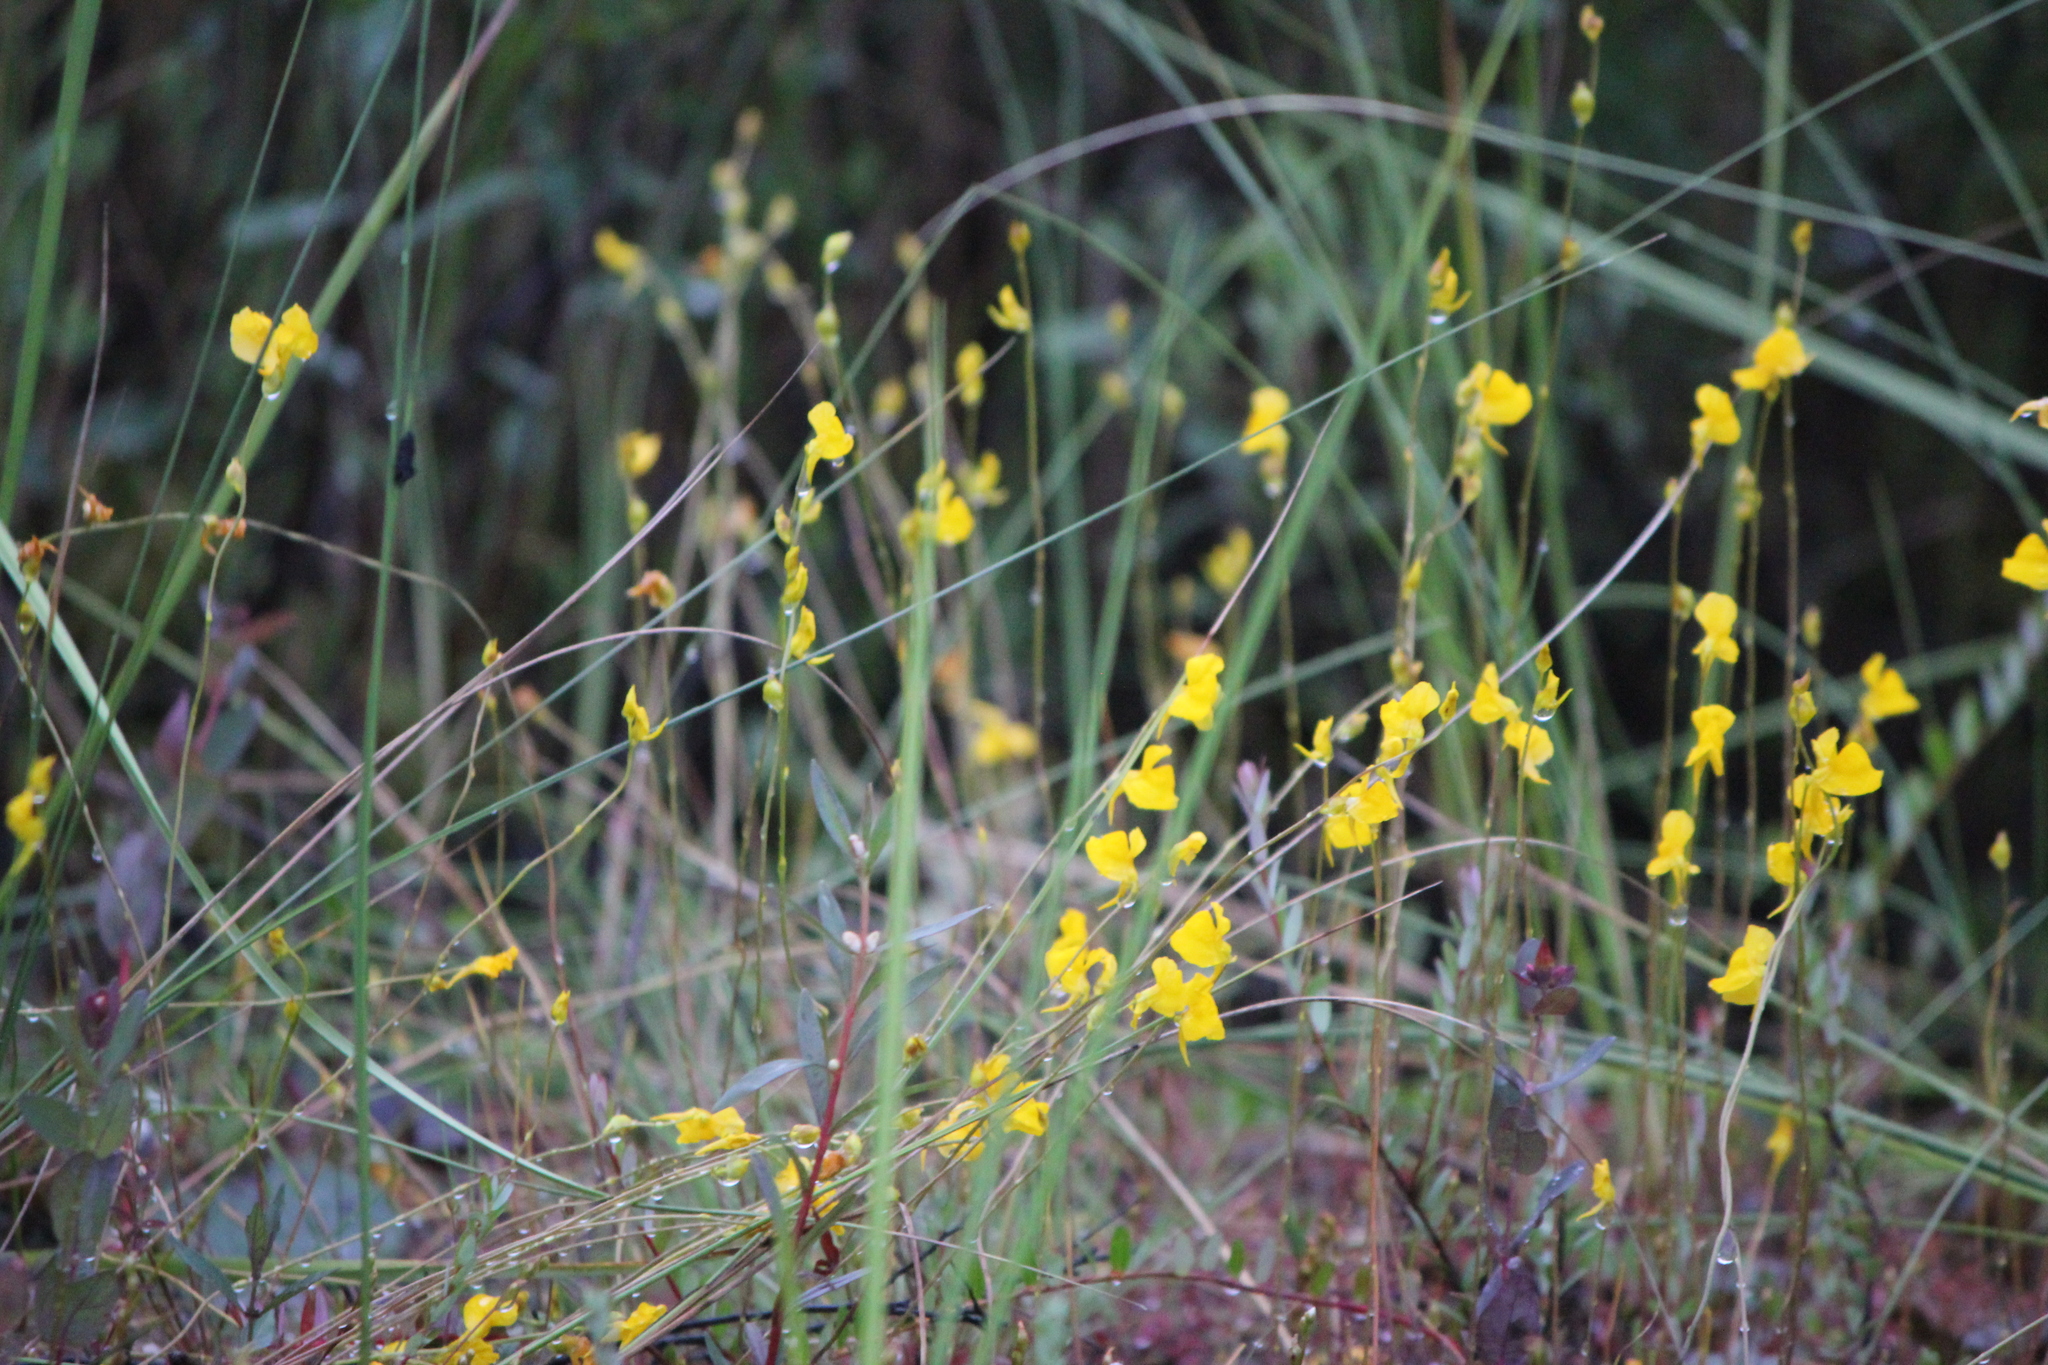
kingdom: Plantae
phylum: Tracheophyta
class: Magnoliopsida
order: Lamiales
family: Lentibulariaceae
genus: Utricularia
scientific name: Utricularia cornuta
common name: Horned bladderwort
